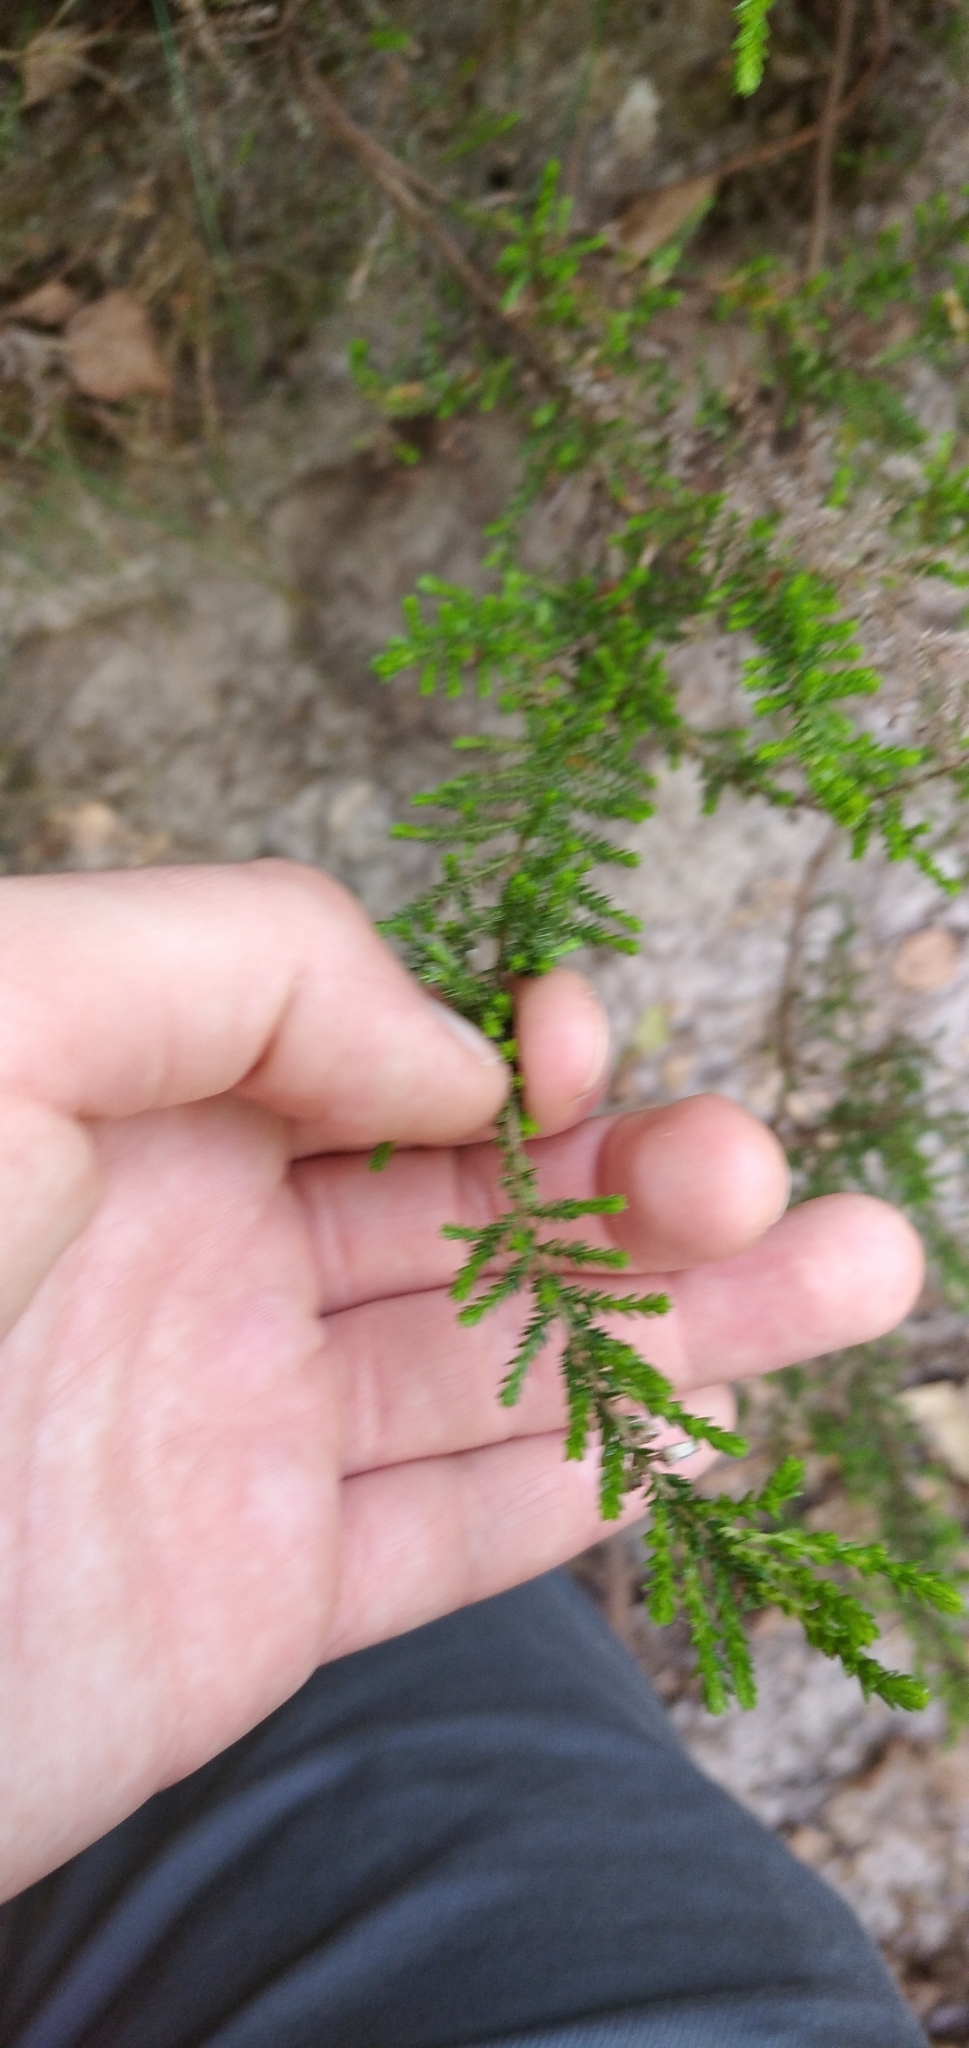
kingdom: Plantae
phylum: Tracheophyta
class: Magnoliopsida
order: Ericales
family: Ericaceae
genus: Calluna
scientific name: Calluna vulgaris
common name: Heather
